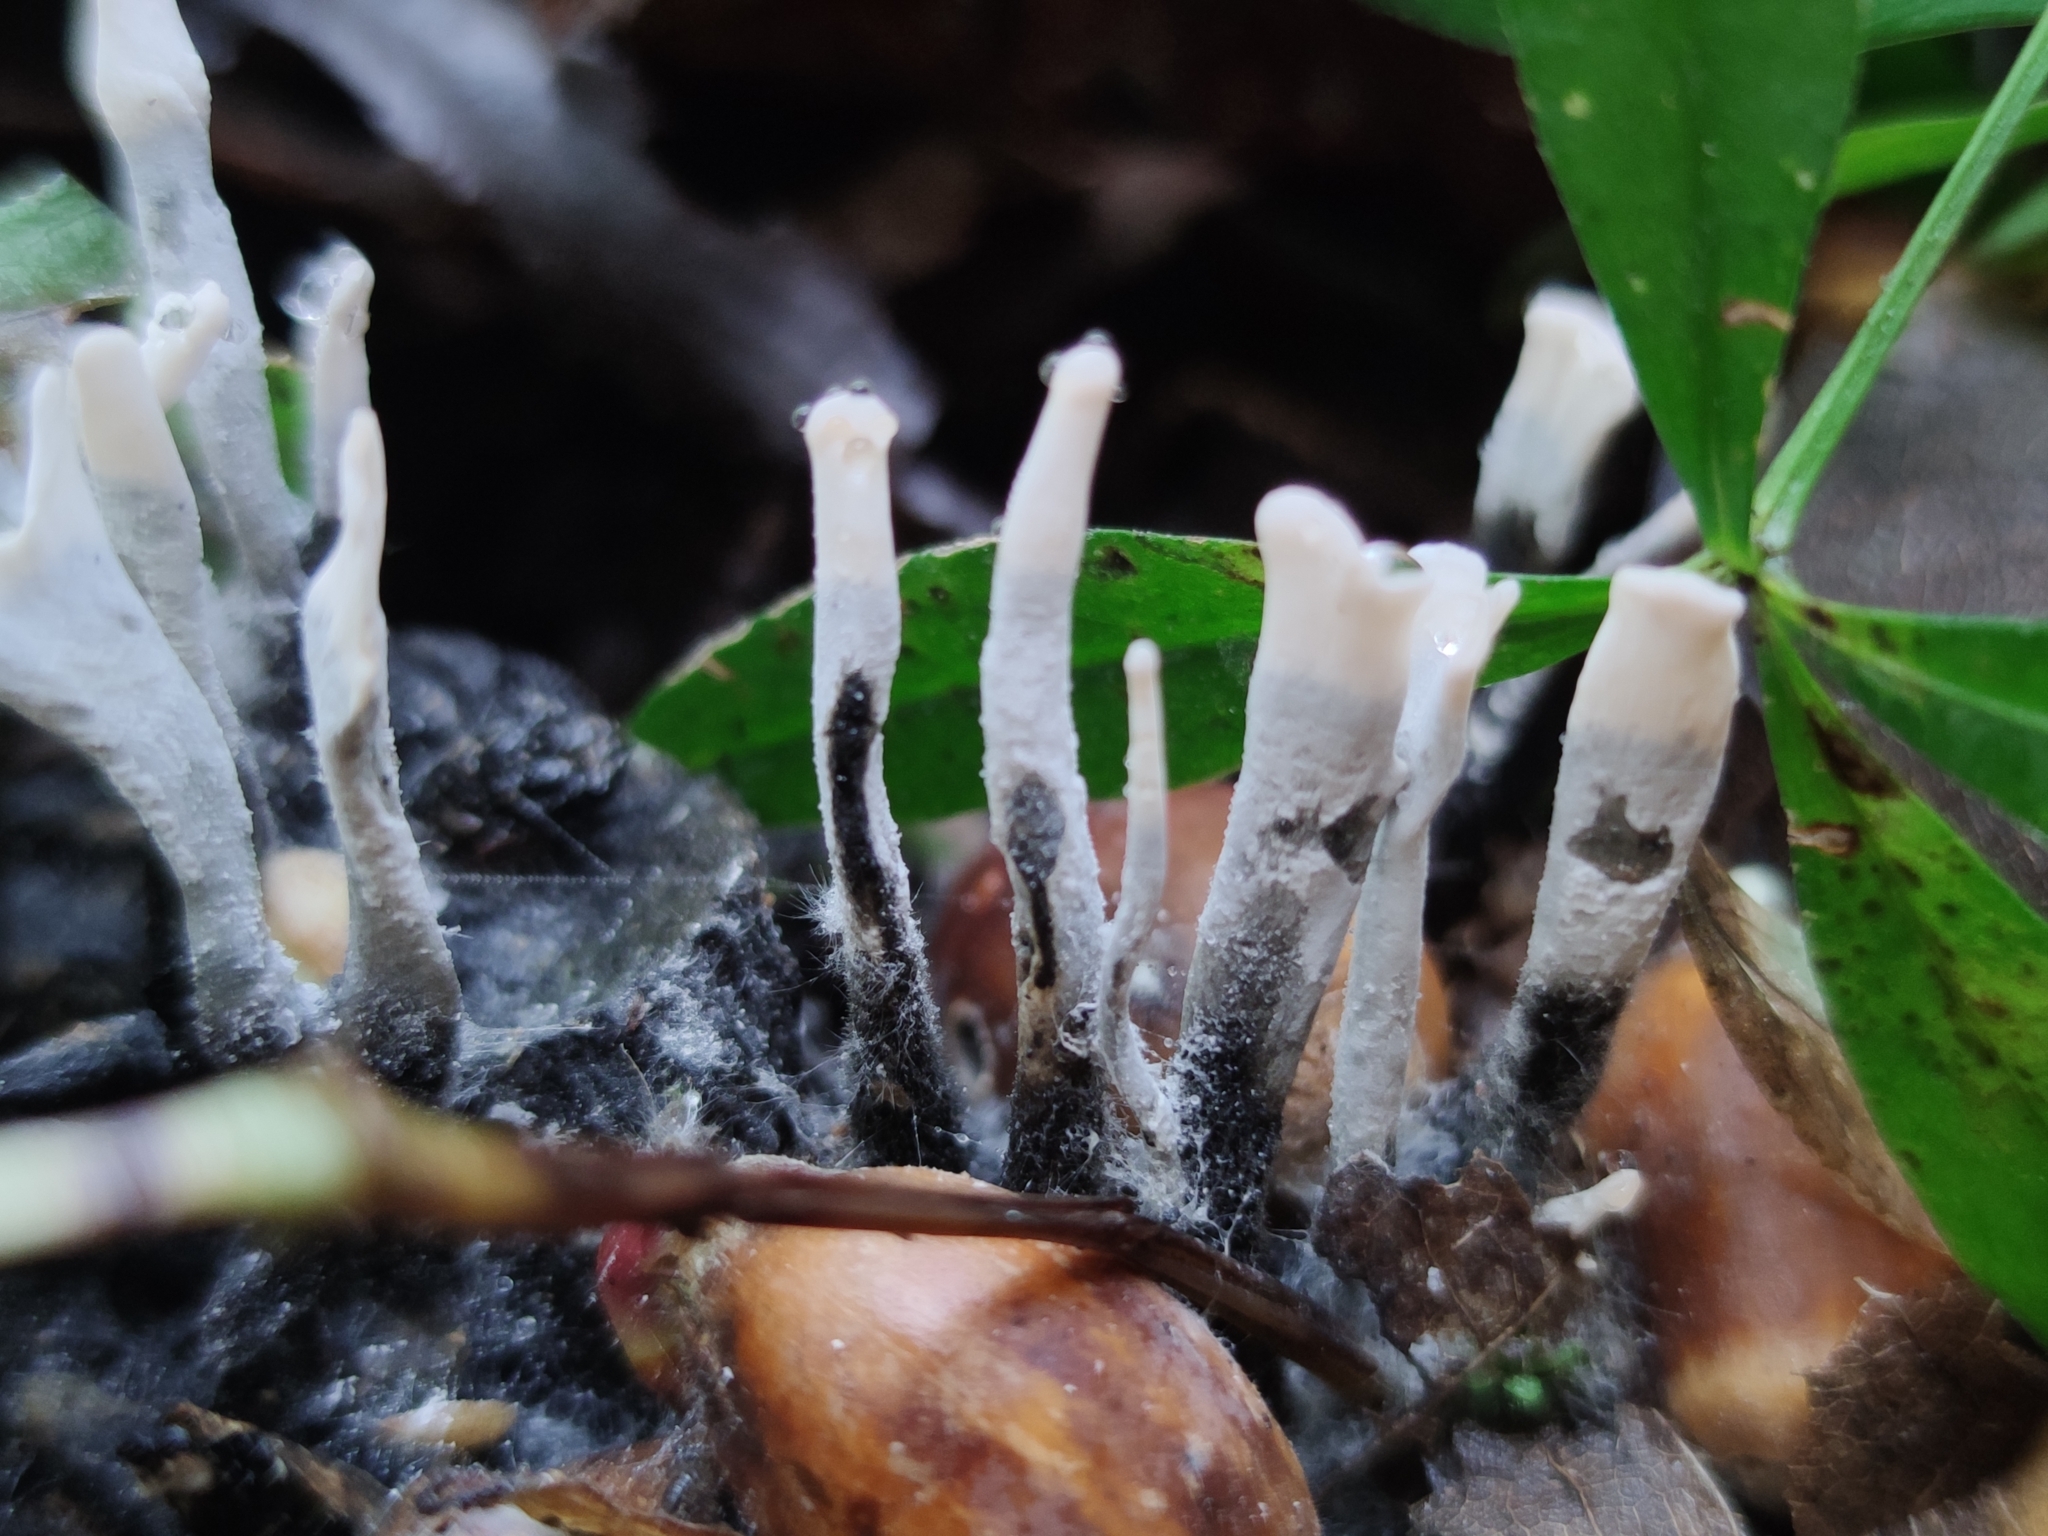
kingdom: Fungi
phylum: Ascomycota
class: Sordariomycetes
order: Xylariales
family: Xylariaceae
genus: Xylaria
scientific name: Xylaria hypoxylon
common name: Candle-snuff fungus
